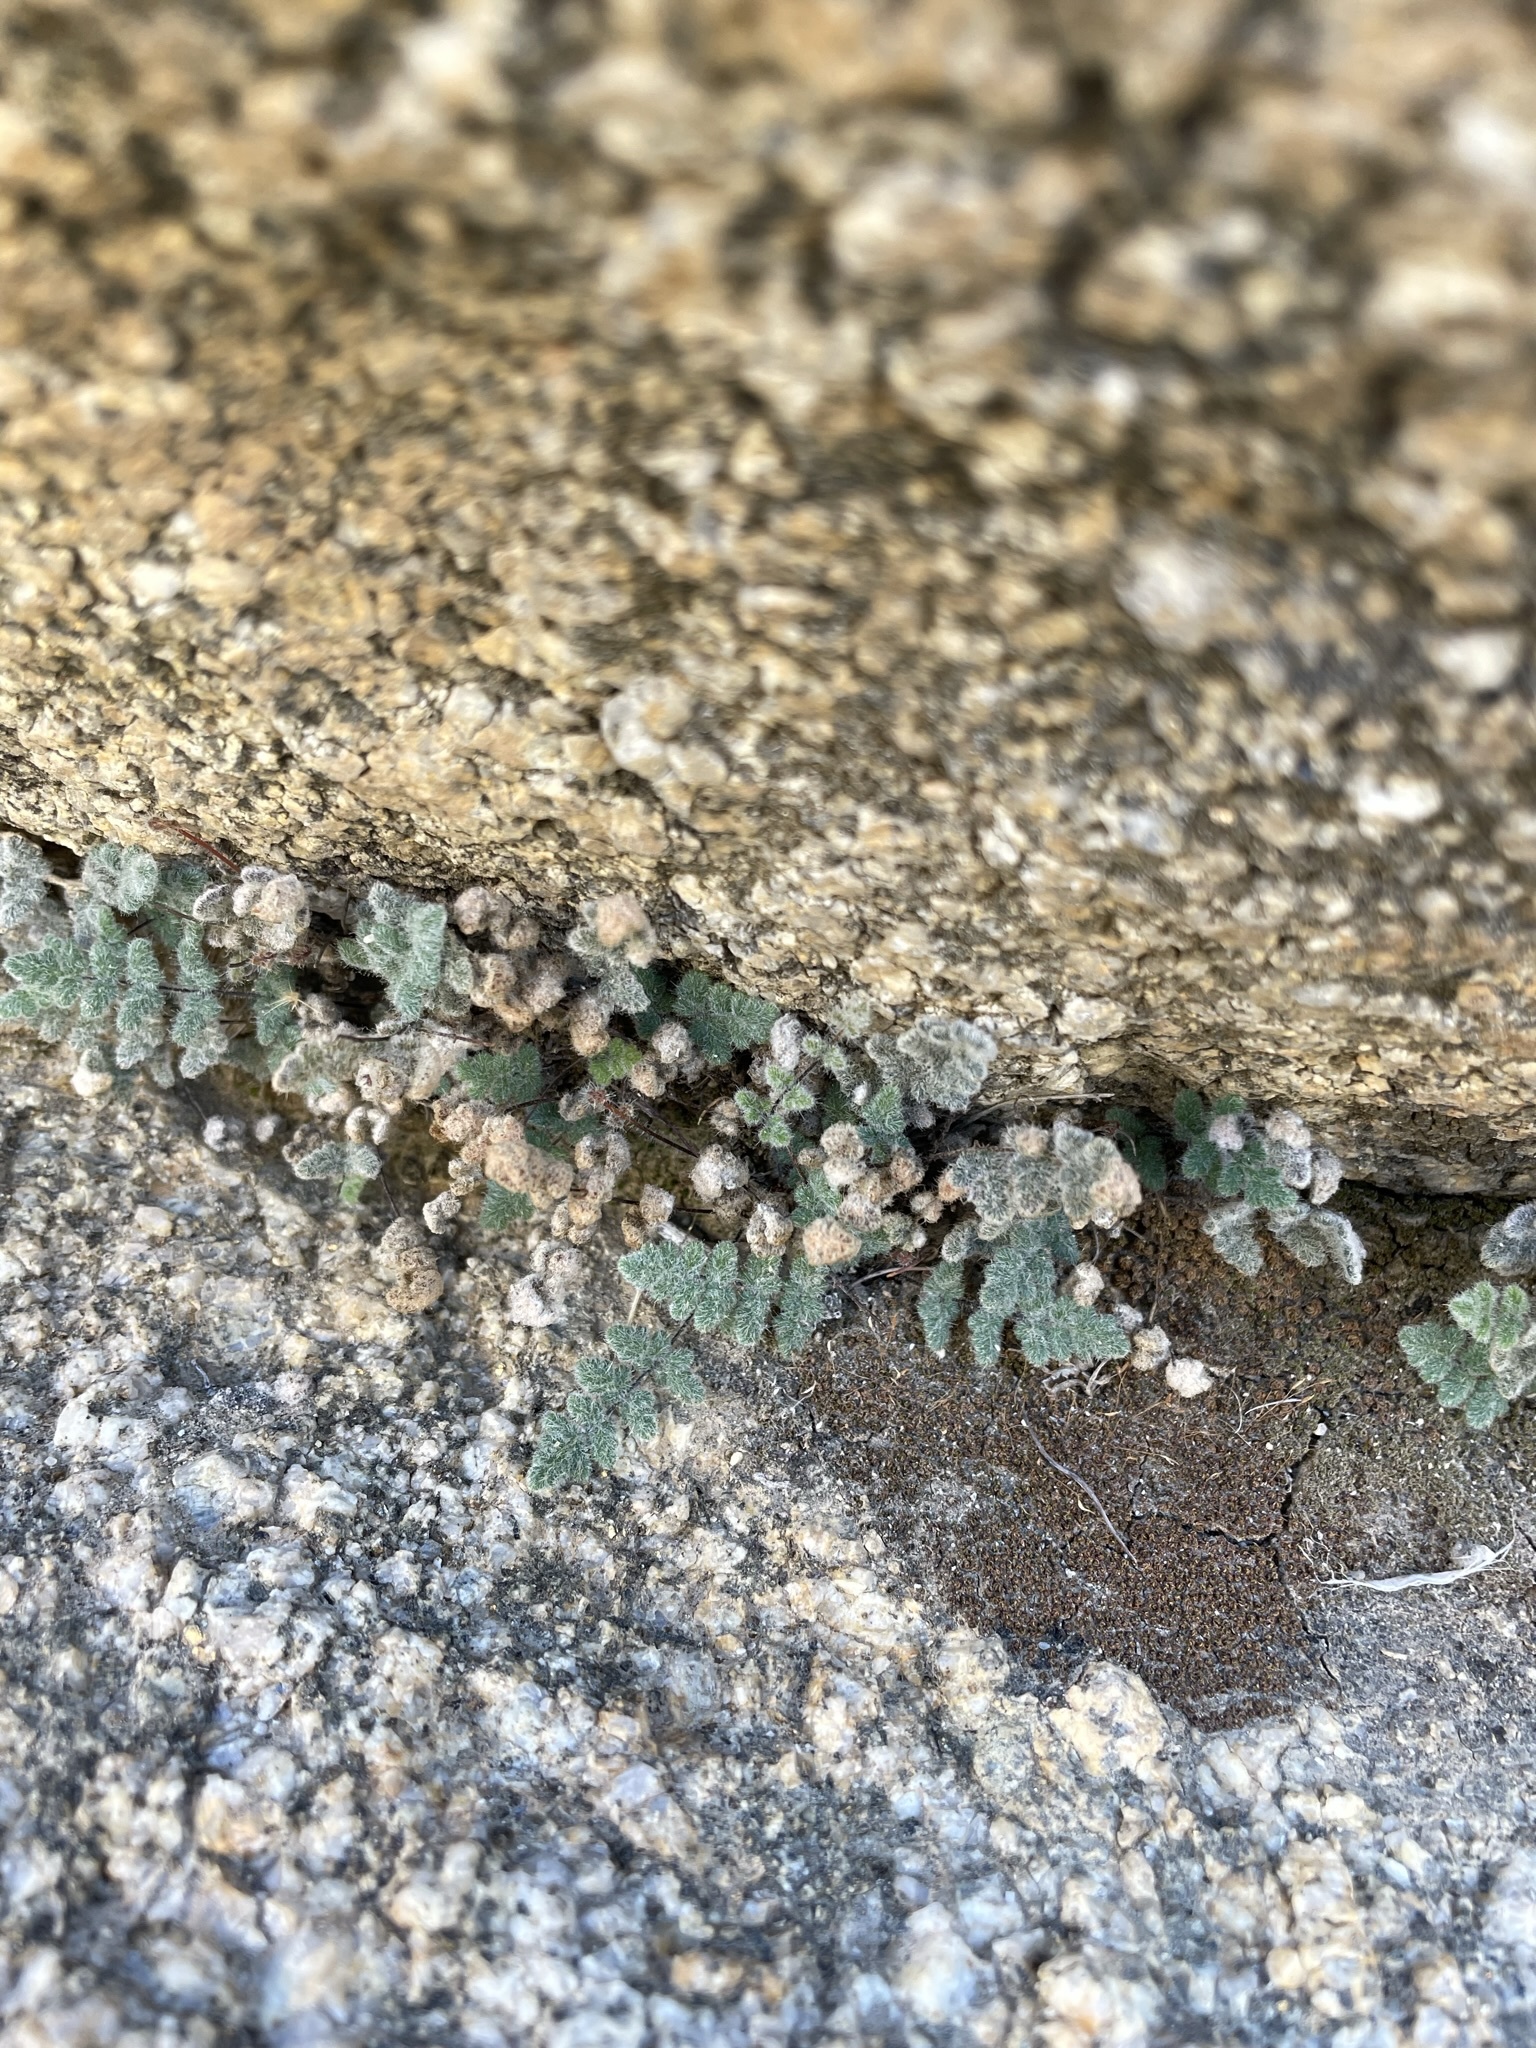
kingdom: Plantae
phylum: Tracheophyta
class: Polypodiopsida
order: Polypodiales
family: Pteridaceae
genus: Myriopteris
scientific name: Myriopteris parryi
